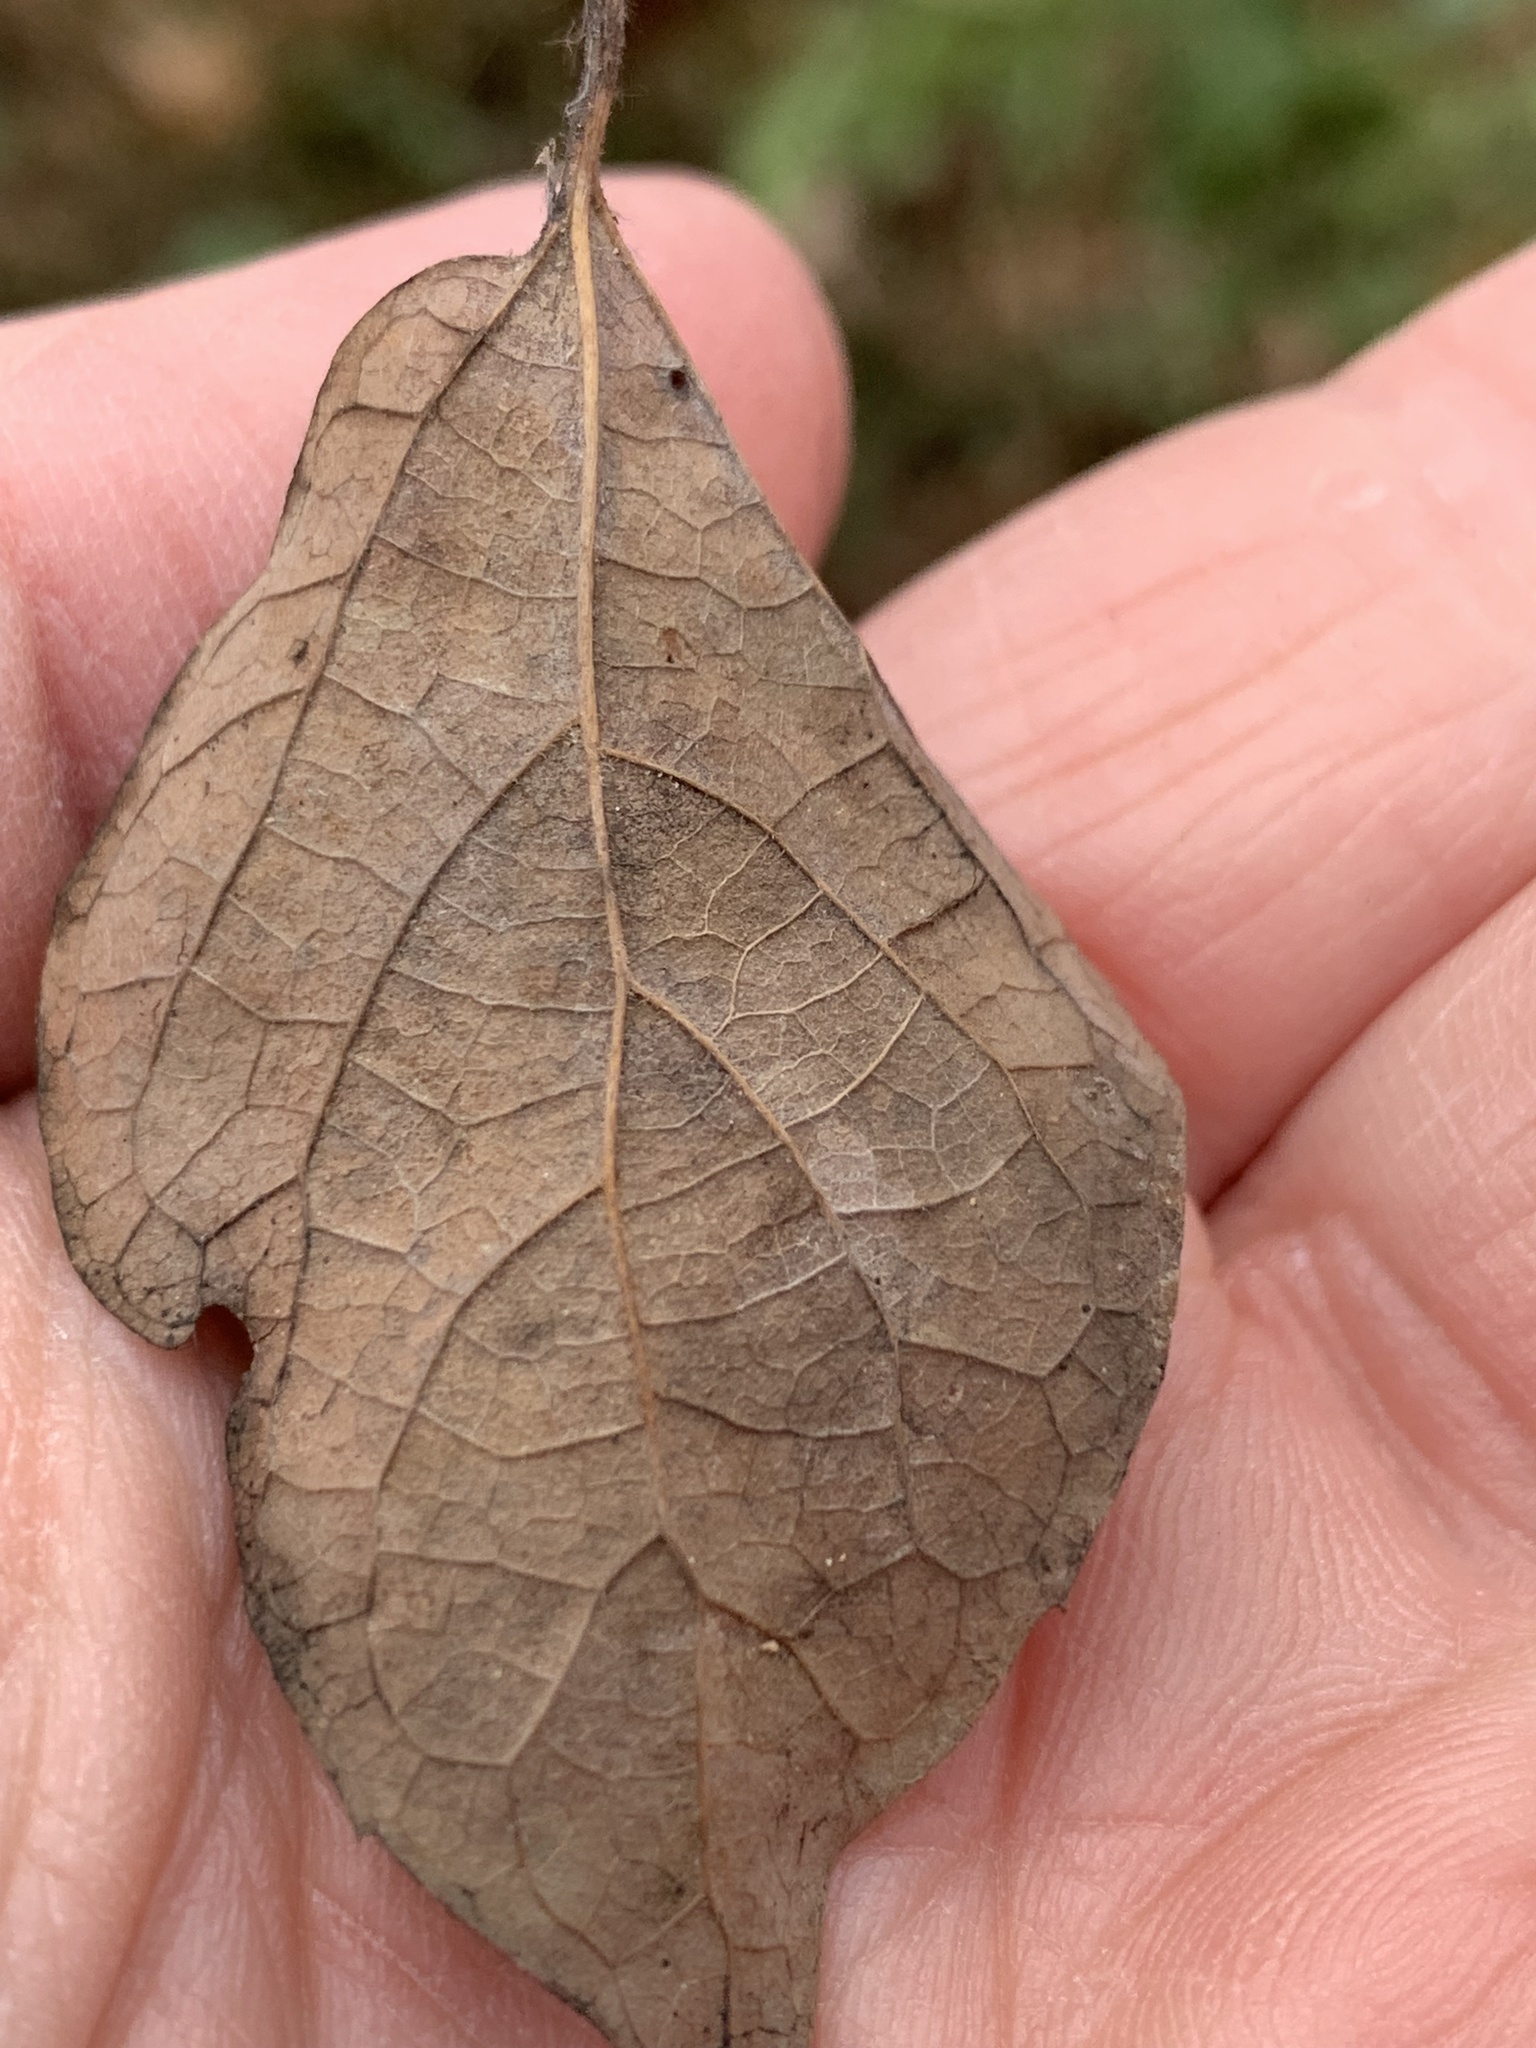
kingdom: Plantae
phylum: Tracheophyta
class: Magnoliopsida
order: Rosales
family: Cannabaceae
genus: Celtis
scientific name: Celtis tenuifolia
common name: Georgia hackberry
